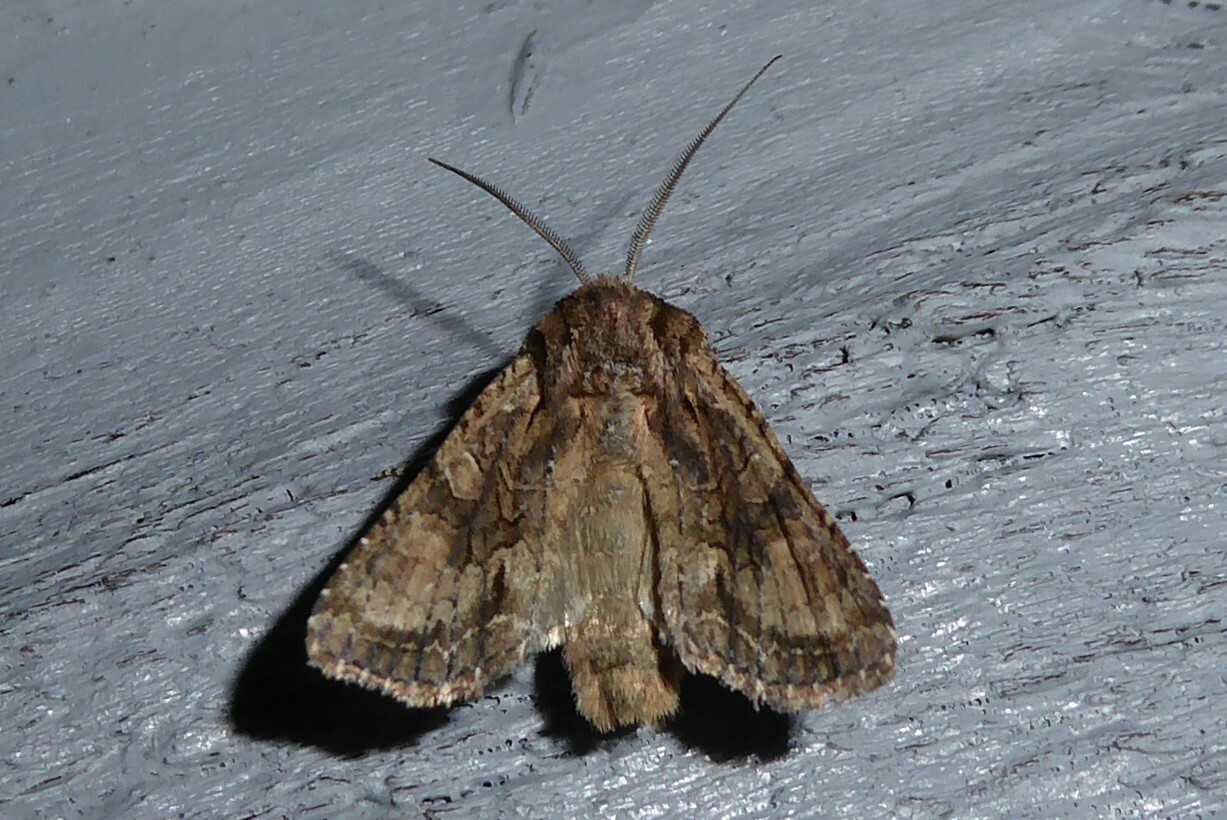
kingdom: Animalia
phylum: Arthropoda
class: Insecta
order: Lepidoptera
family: Noctuidae
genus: Ichneutica
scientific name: Ichneutica mutans
